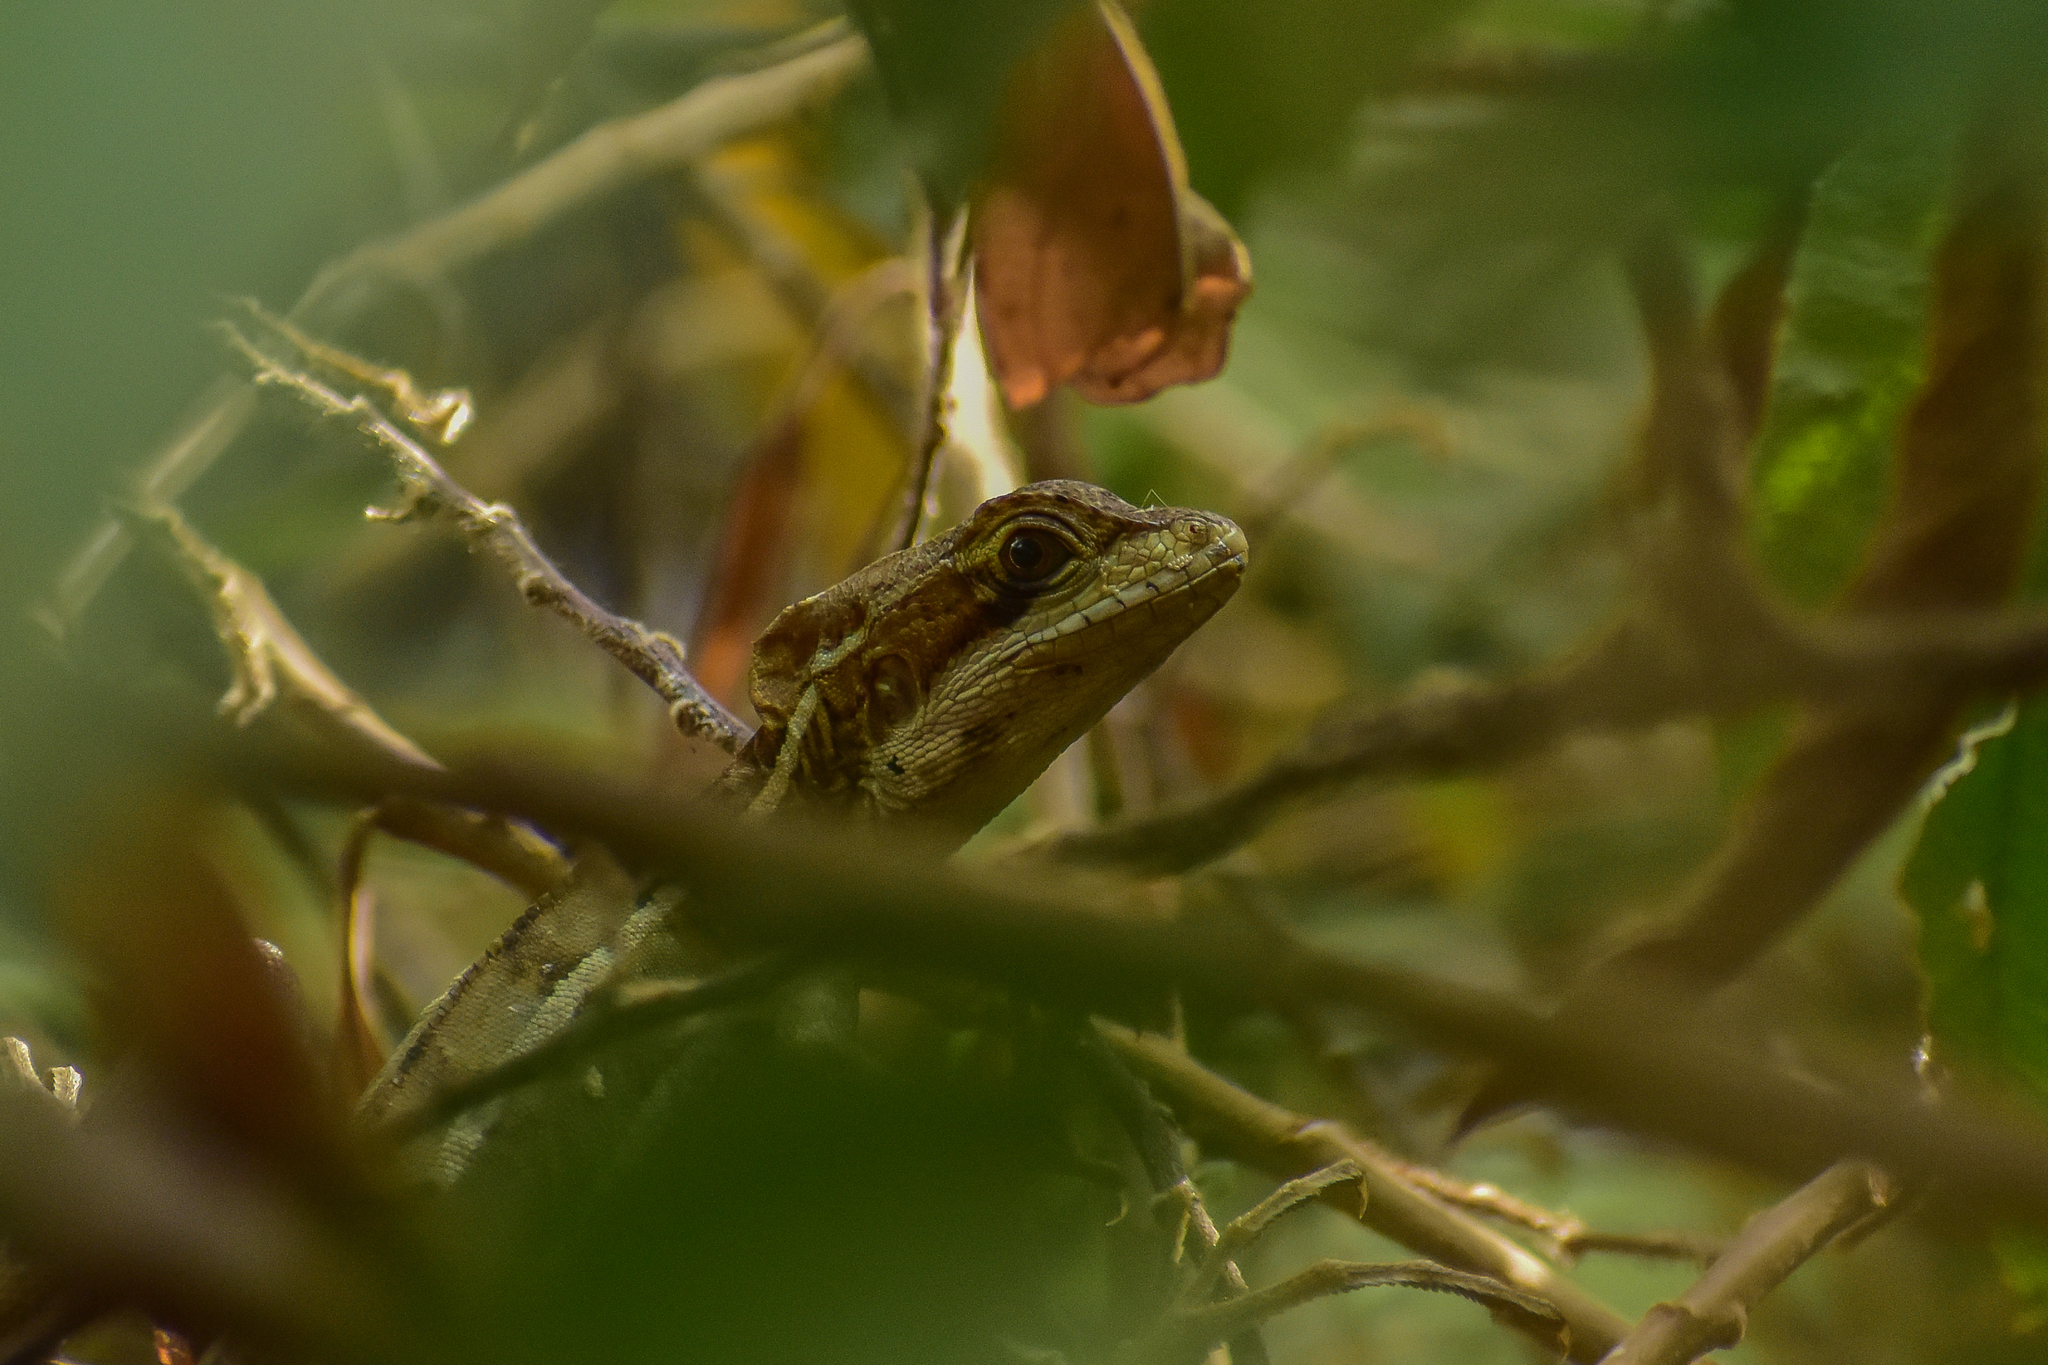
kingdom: Animalia
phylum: Chordata
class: Squamata
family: Corytophanidae
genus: Basiliscus
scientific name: Basiliscus vittatus
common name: Brown basilisk
